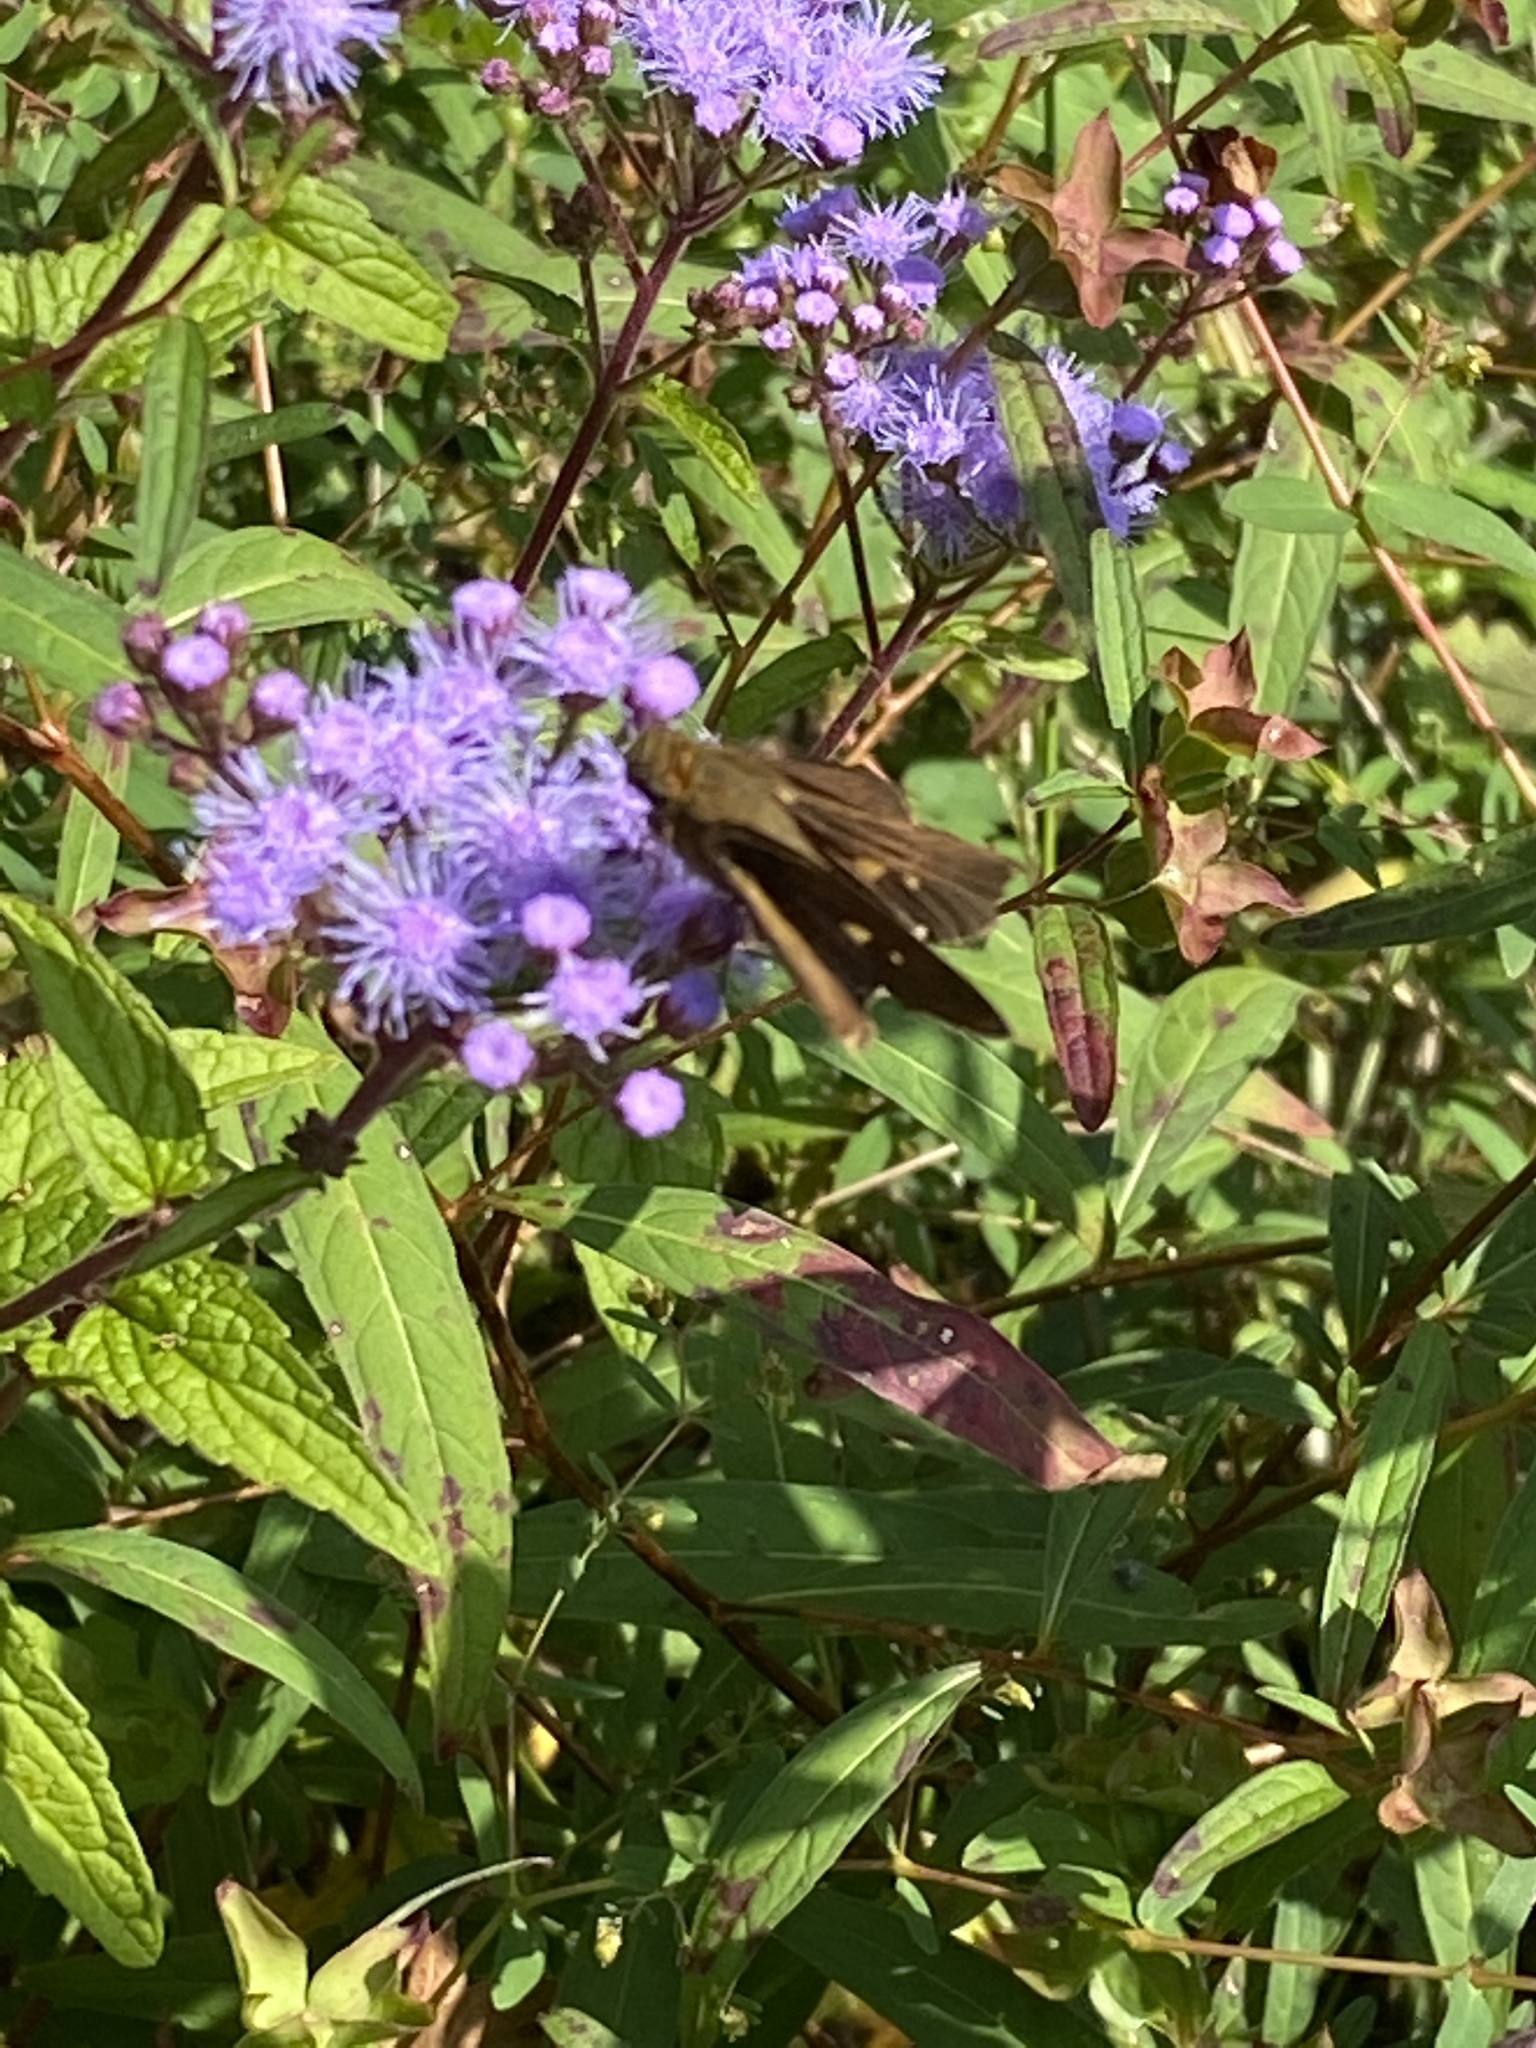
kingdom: Animalia
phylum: Arthropoda
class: Insecta
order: Lepidoptera
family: Hesperiidae
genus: Panoquina
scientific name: Panoquina ocola
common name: Ocola skipper
